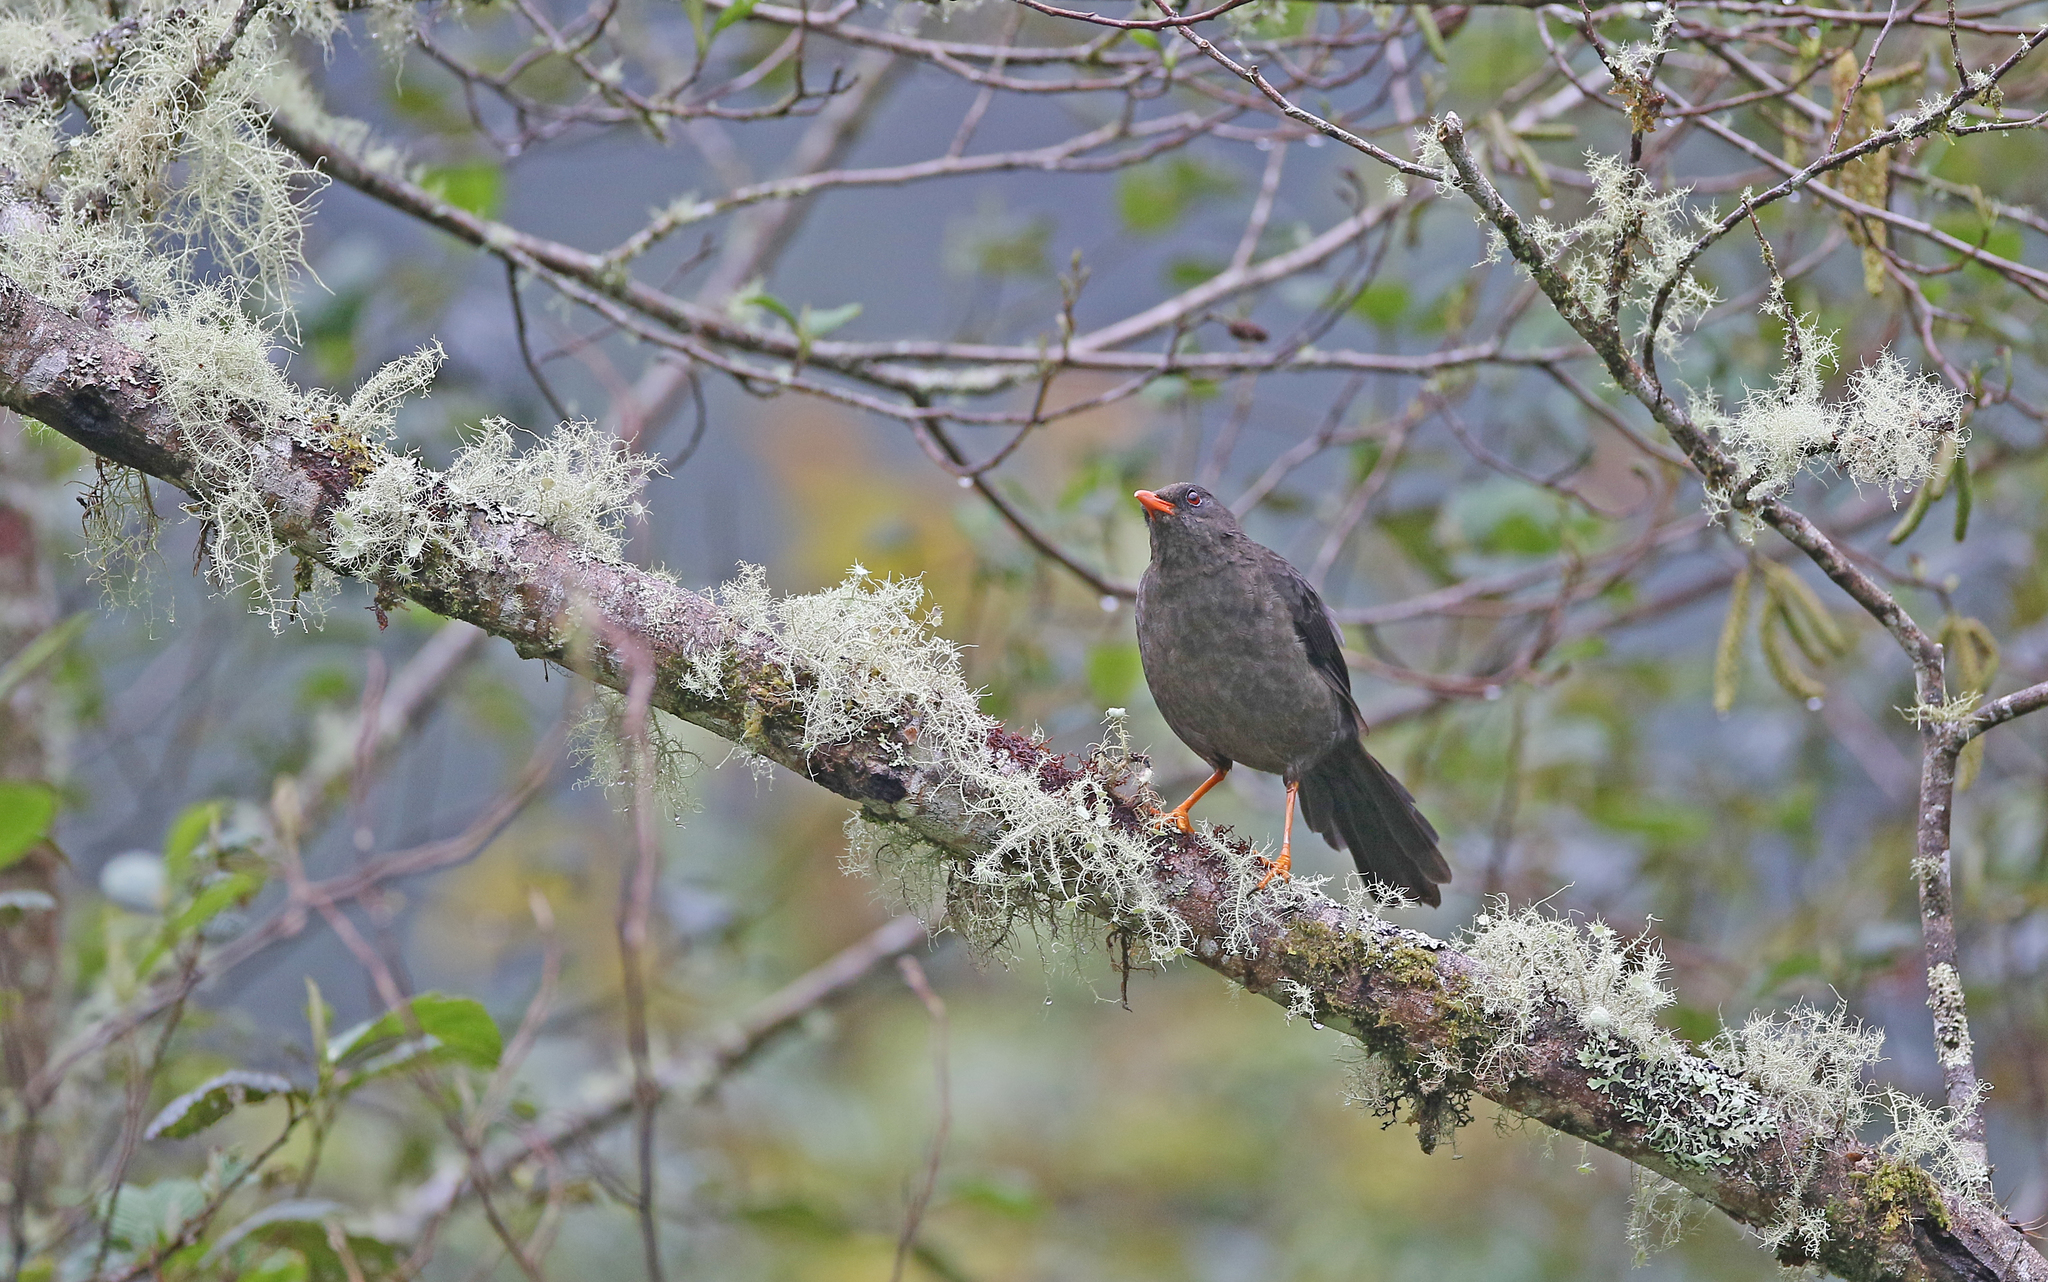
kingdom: Animalia
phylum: Chordata
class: Aves
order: Passeriformes
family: Turdidae
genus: Turdus
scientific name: Turdus fuscater
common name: Great thrush
